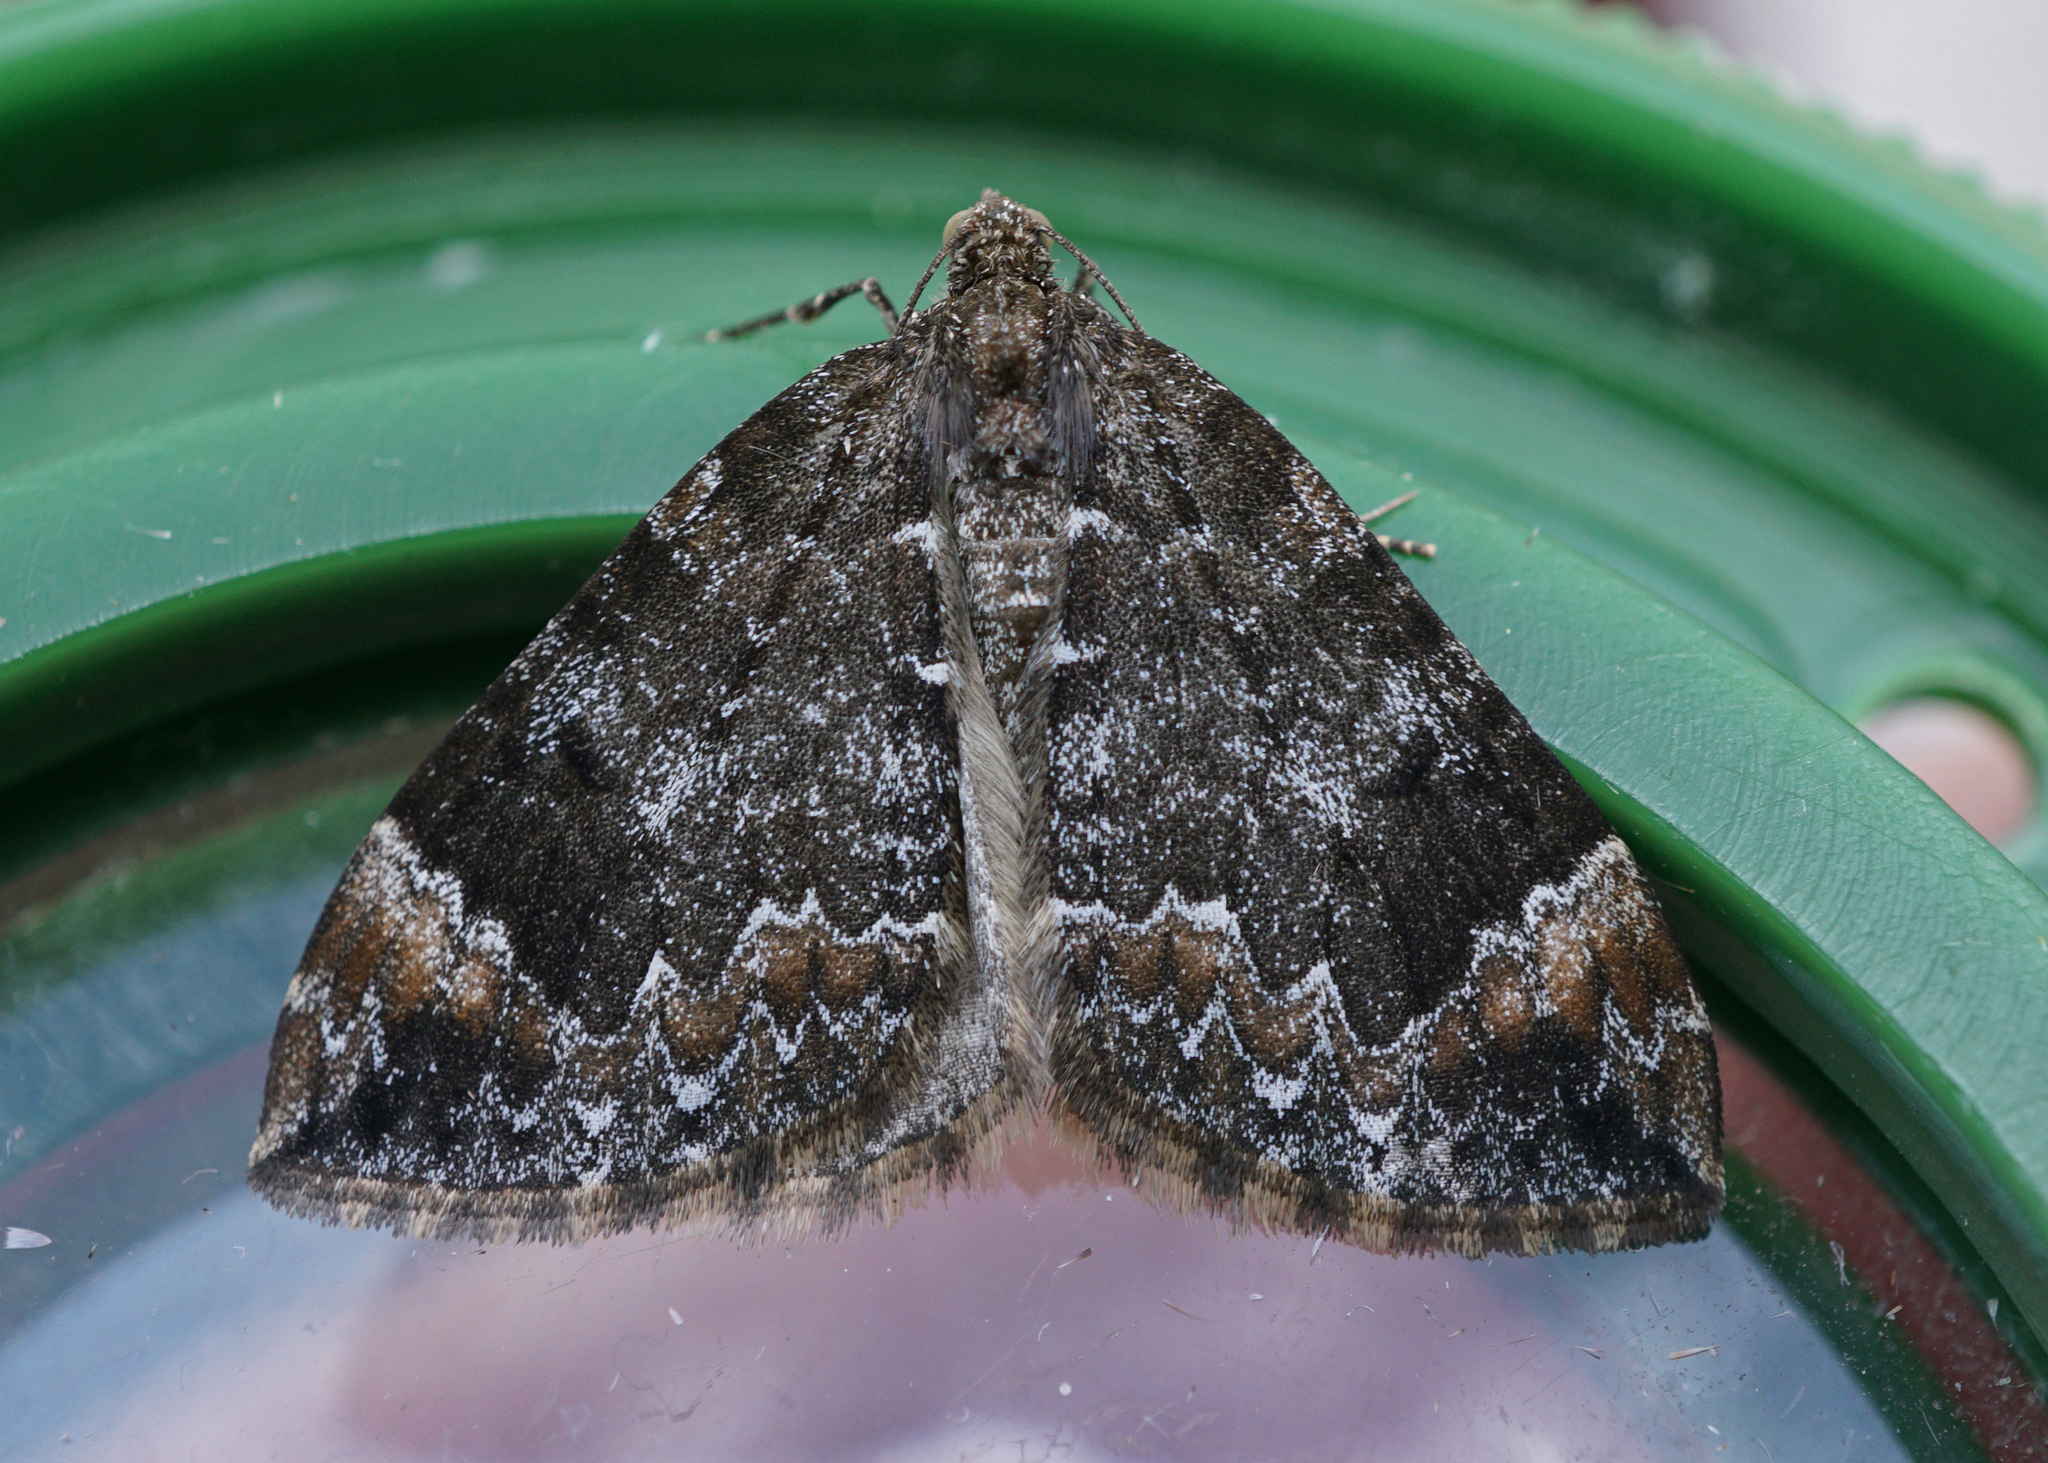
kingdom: Animalia
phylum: Arthropoda
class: Insecta
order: Lepidoptera
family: Geometridae
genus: Dysstroma
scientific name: Dysstroma truncata
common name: Common marbled carpet
